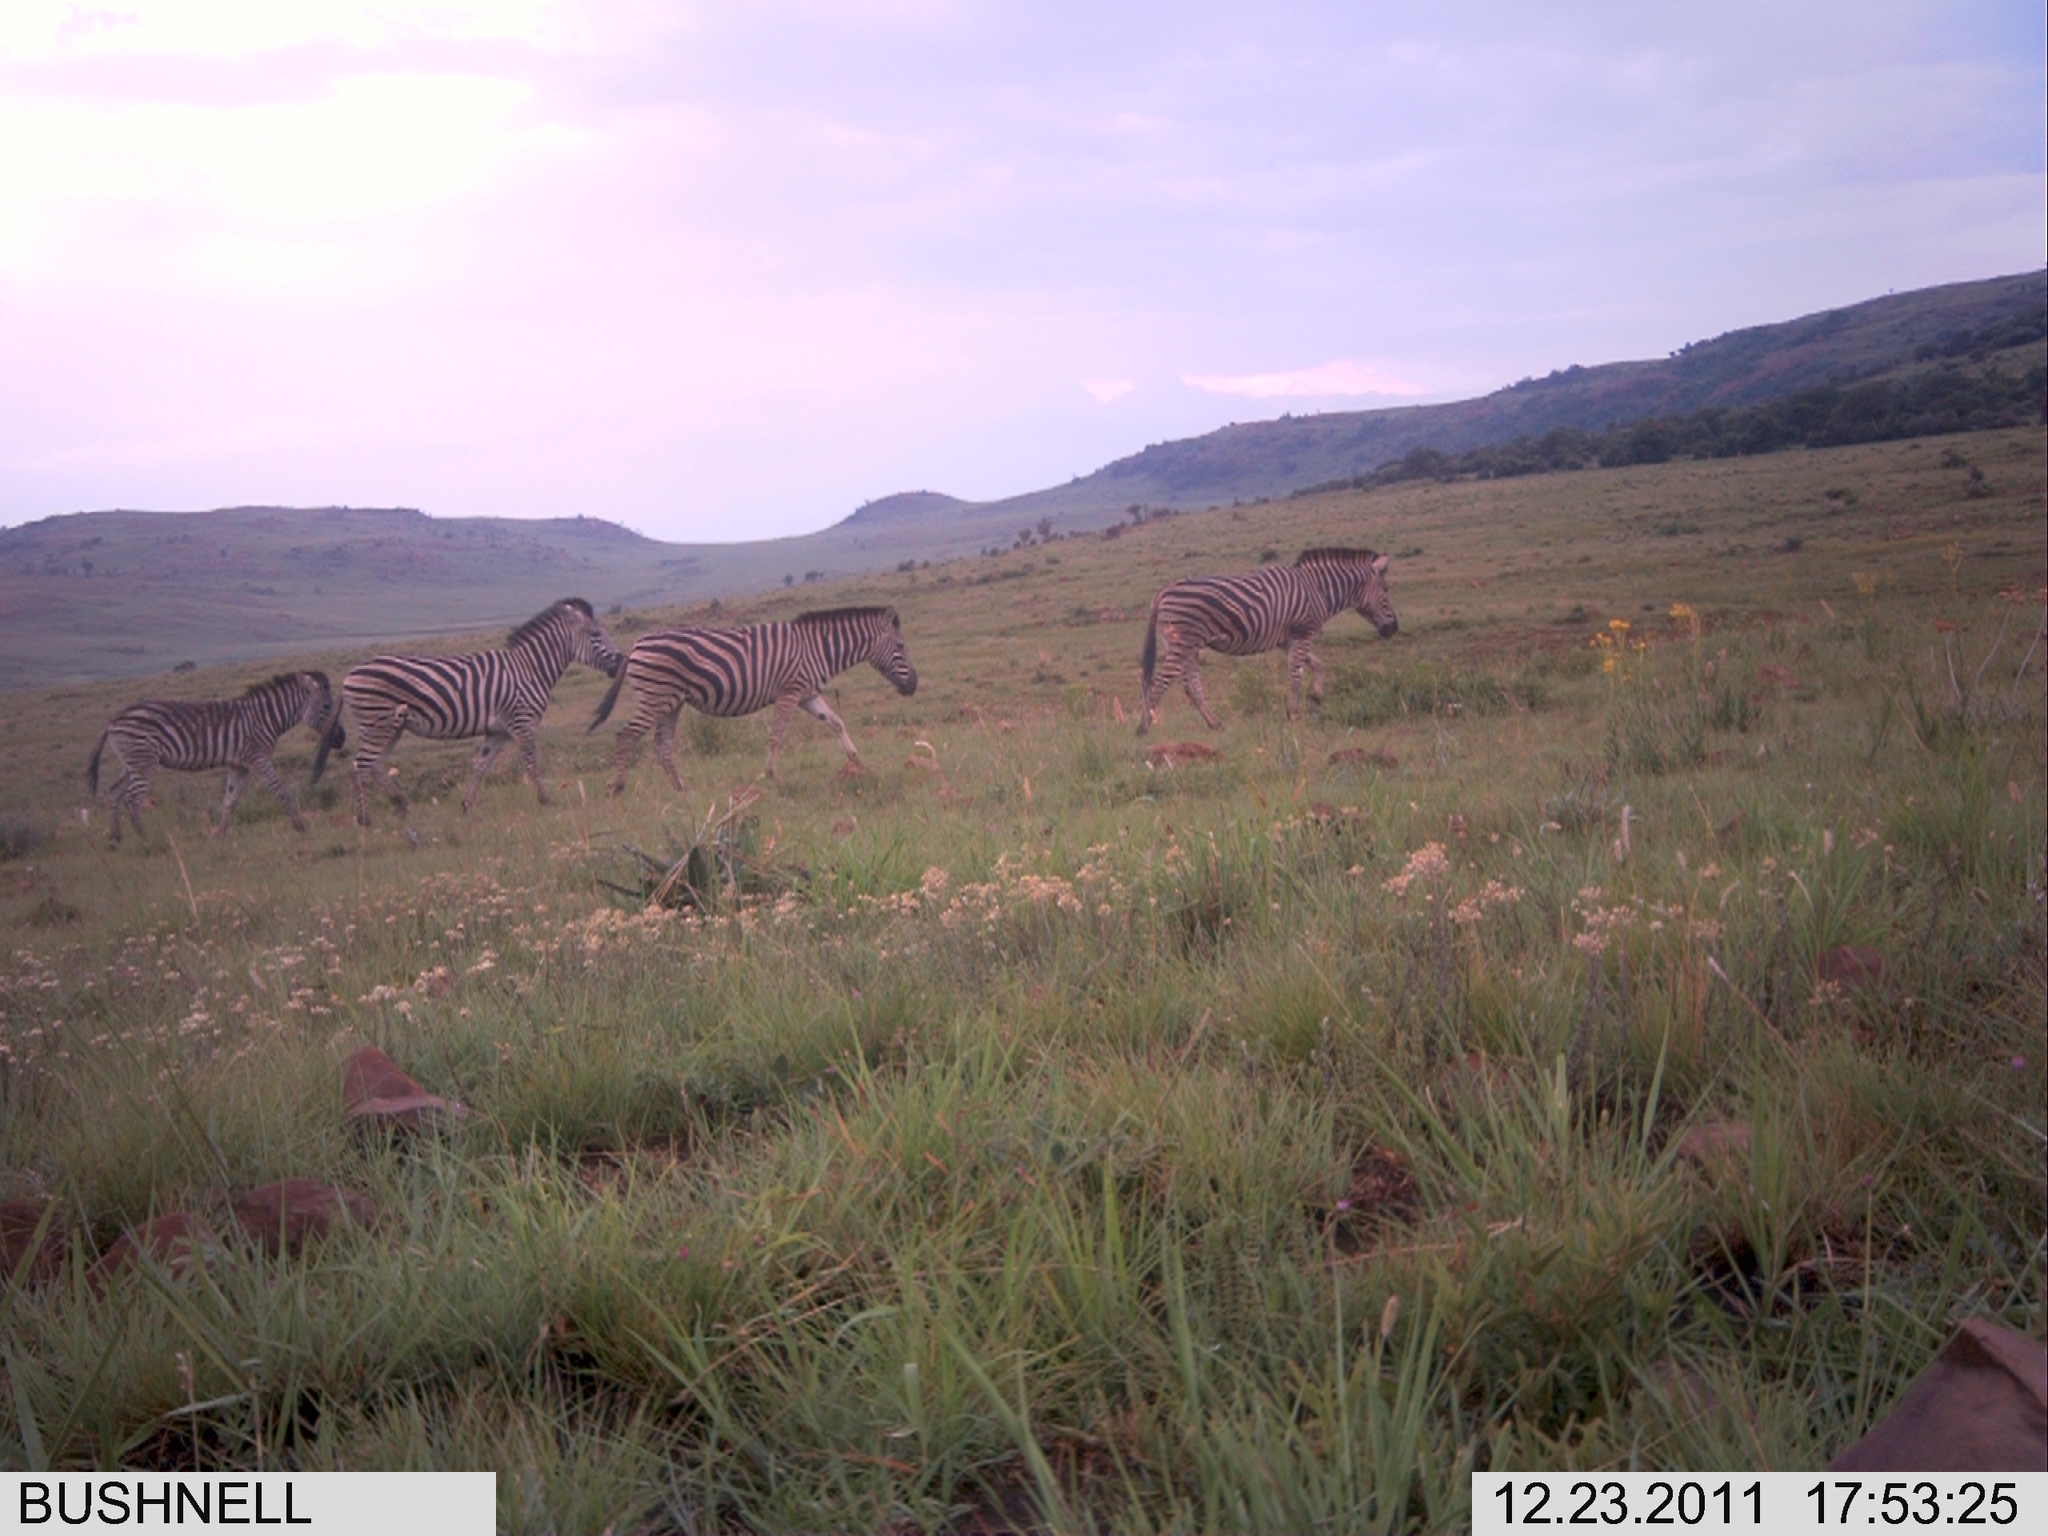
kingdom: Animalia
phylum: Chordata
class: Mammalia
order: Perissodactyla
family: Equidae
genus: Equus
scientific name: Equus quagga
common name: Plains zebra
